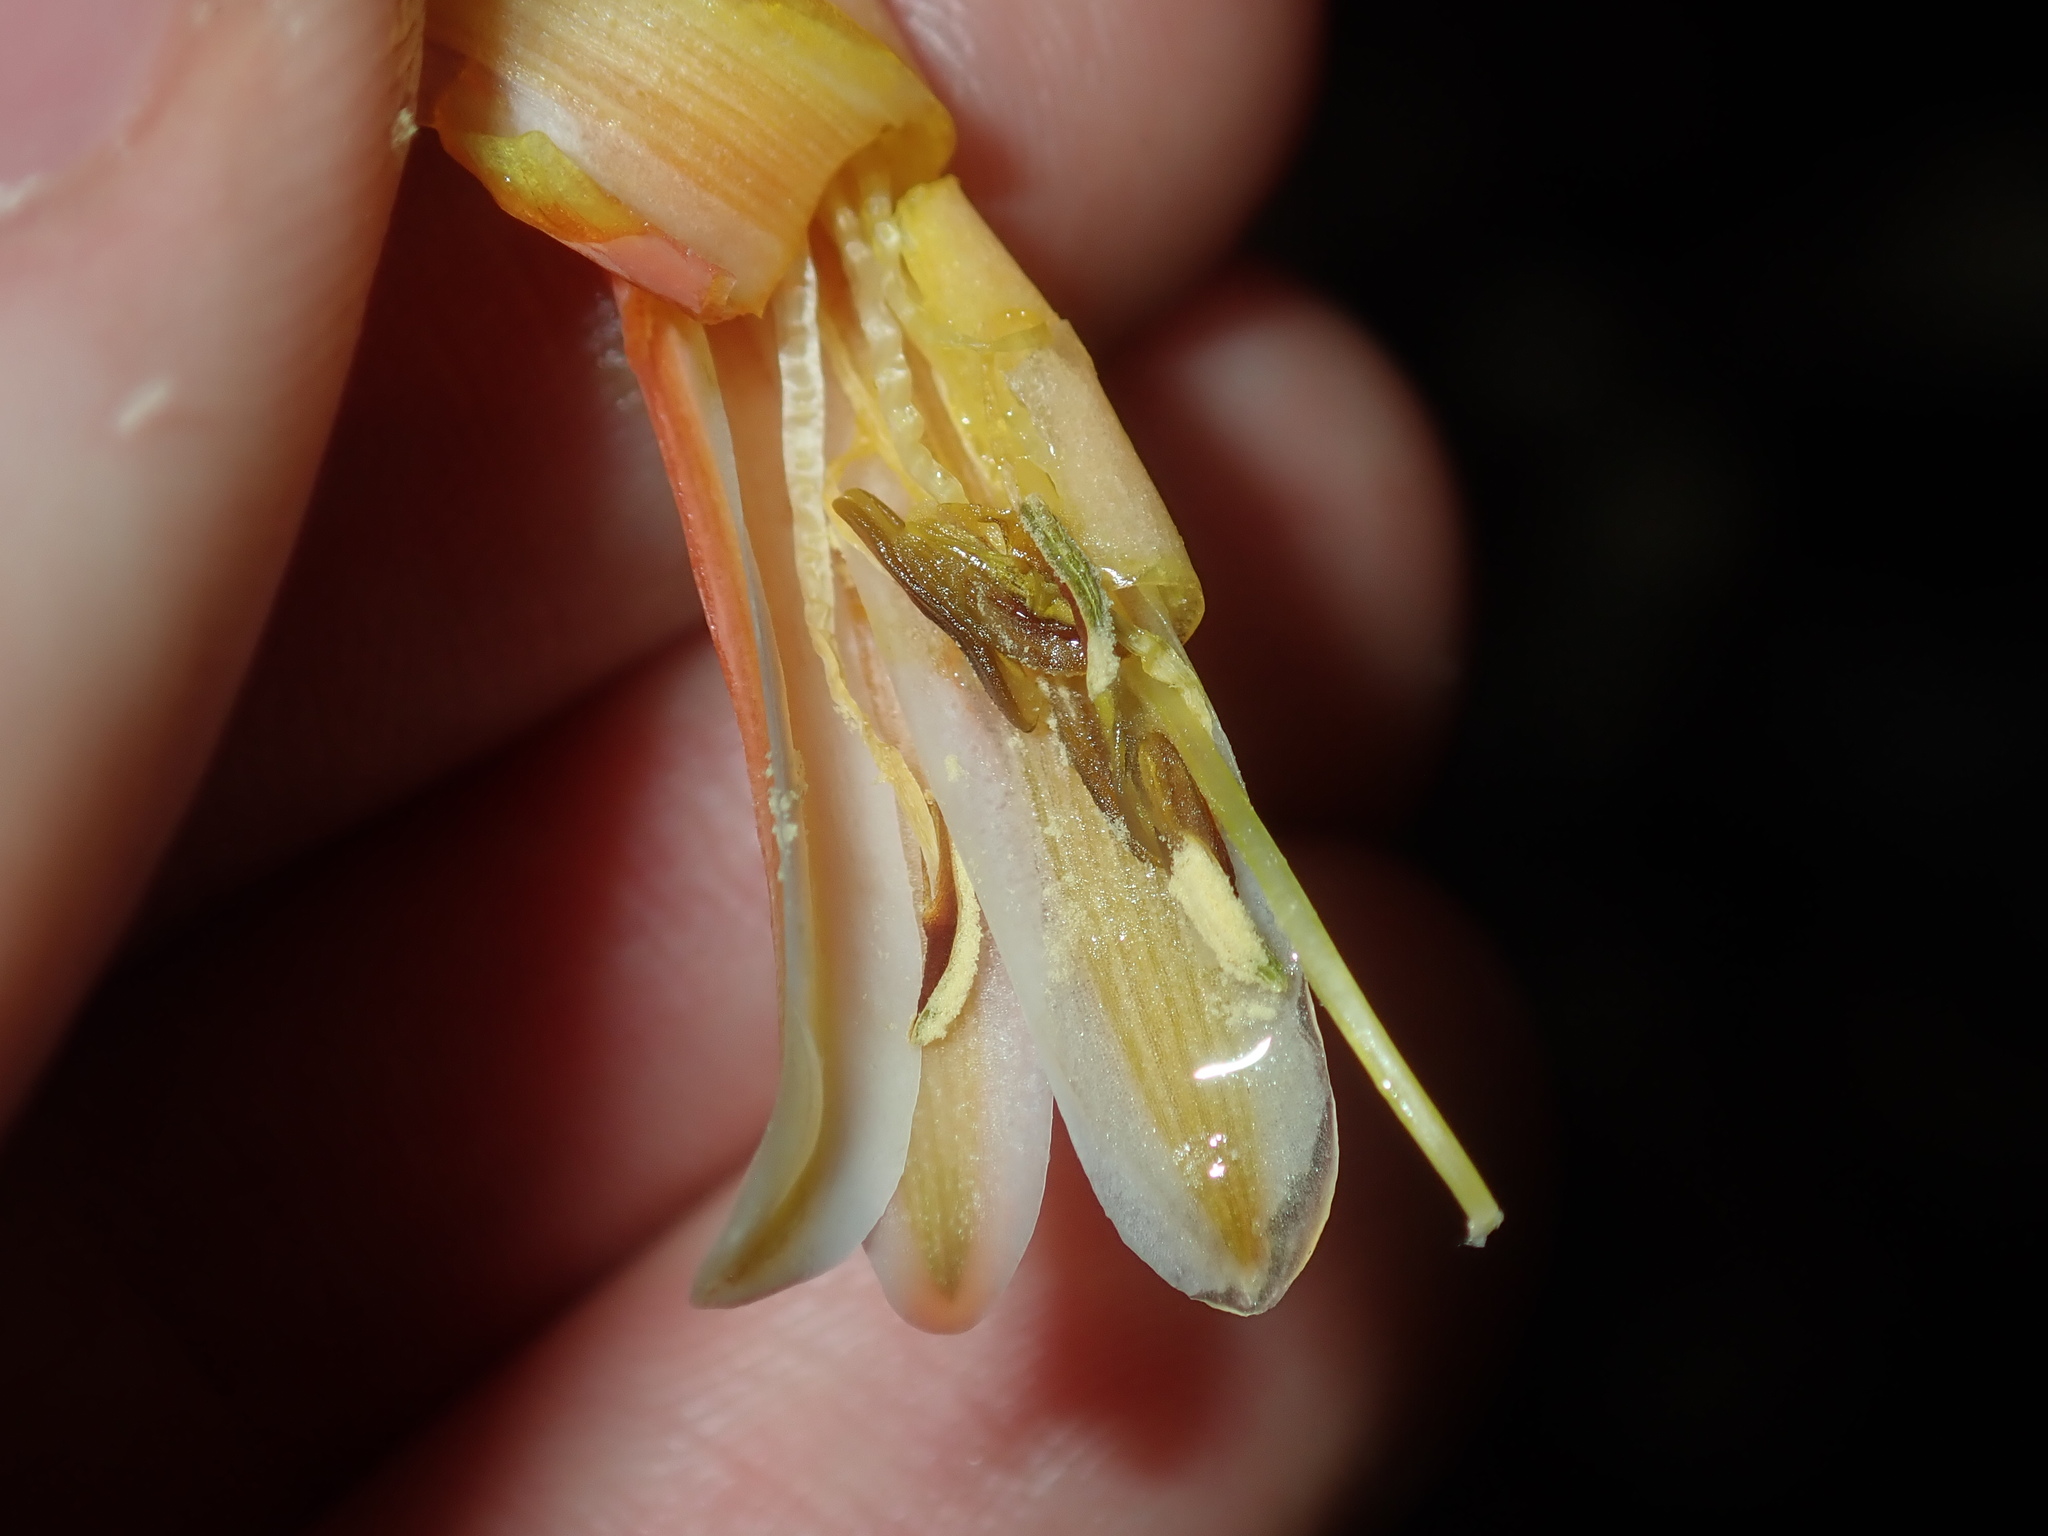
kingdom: Plantae
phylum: Tracheophyta
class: Liliopsida
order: Asparagales
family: Asphodelaceae
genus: Aloe
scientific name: Aloe maculata
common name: Broadleaf aloe
